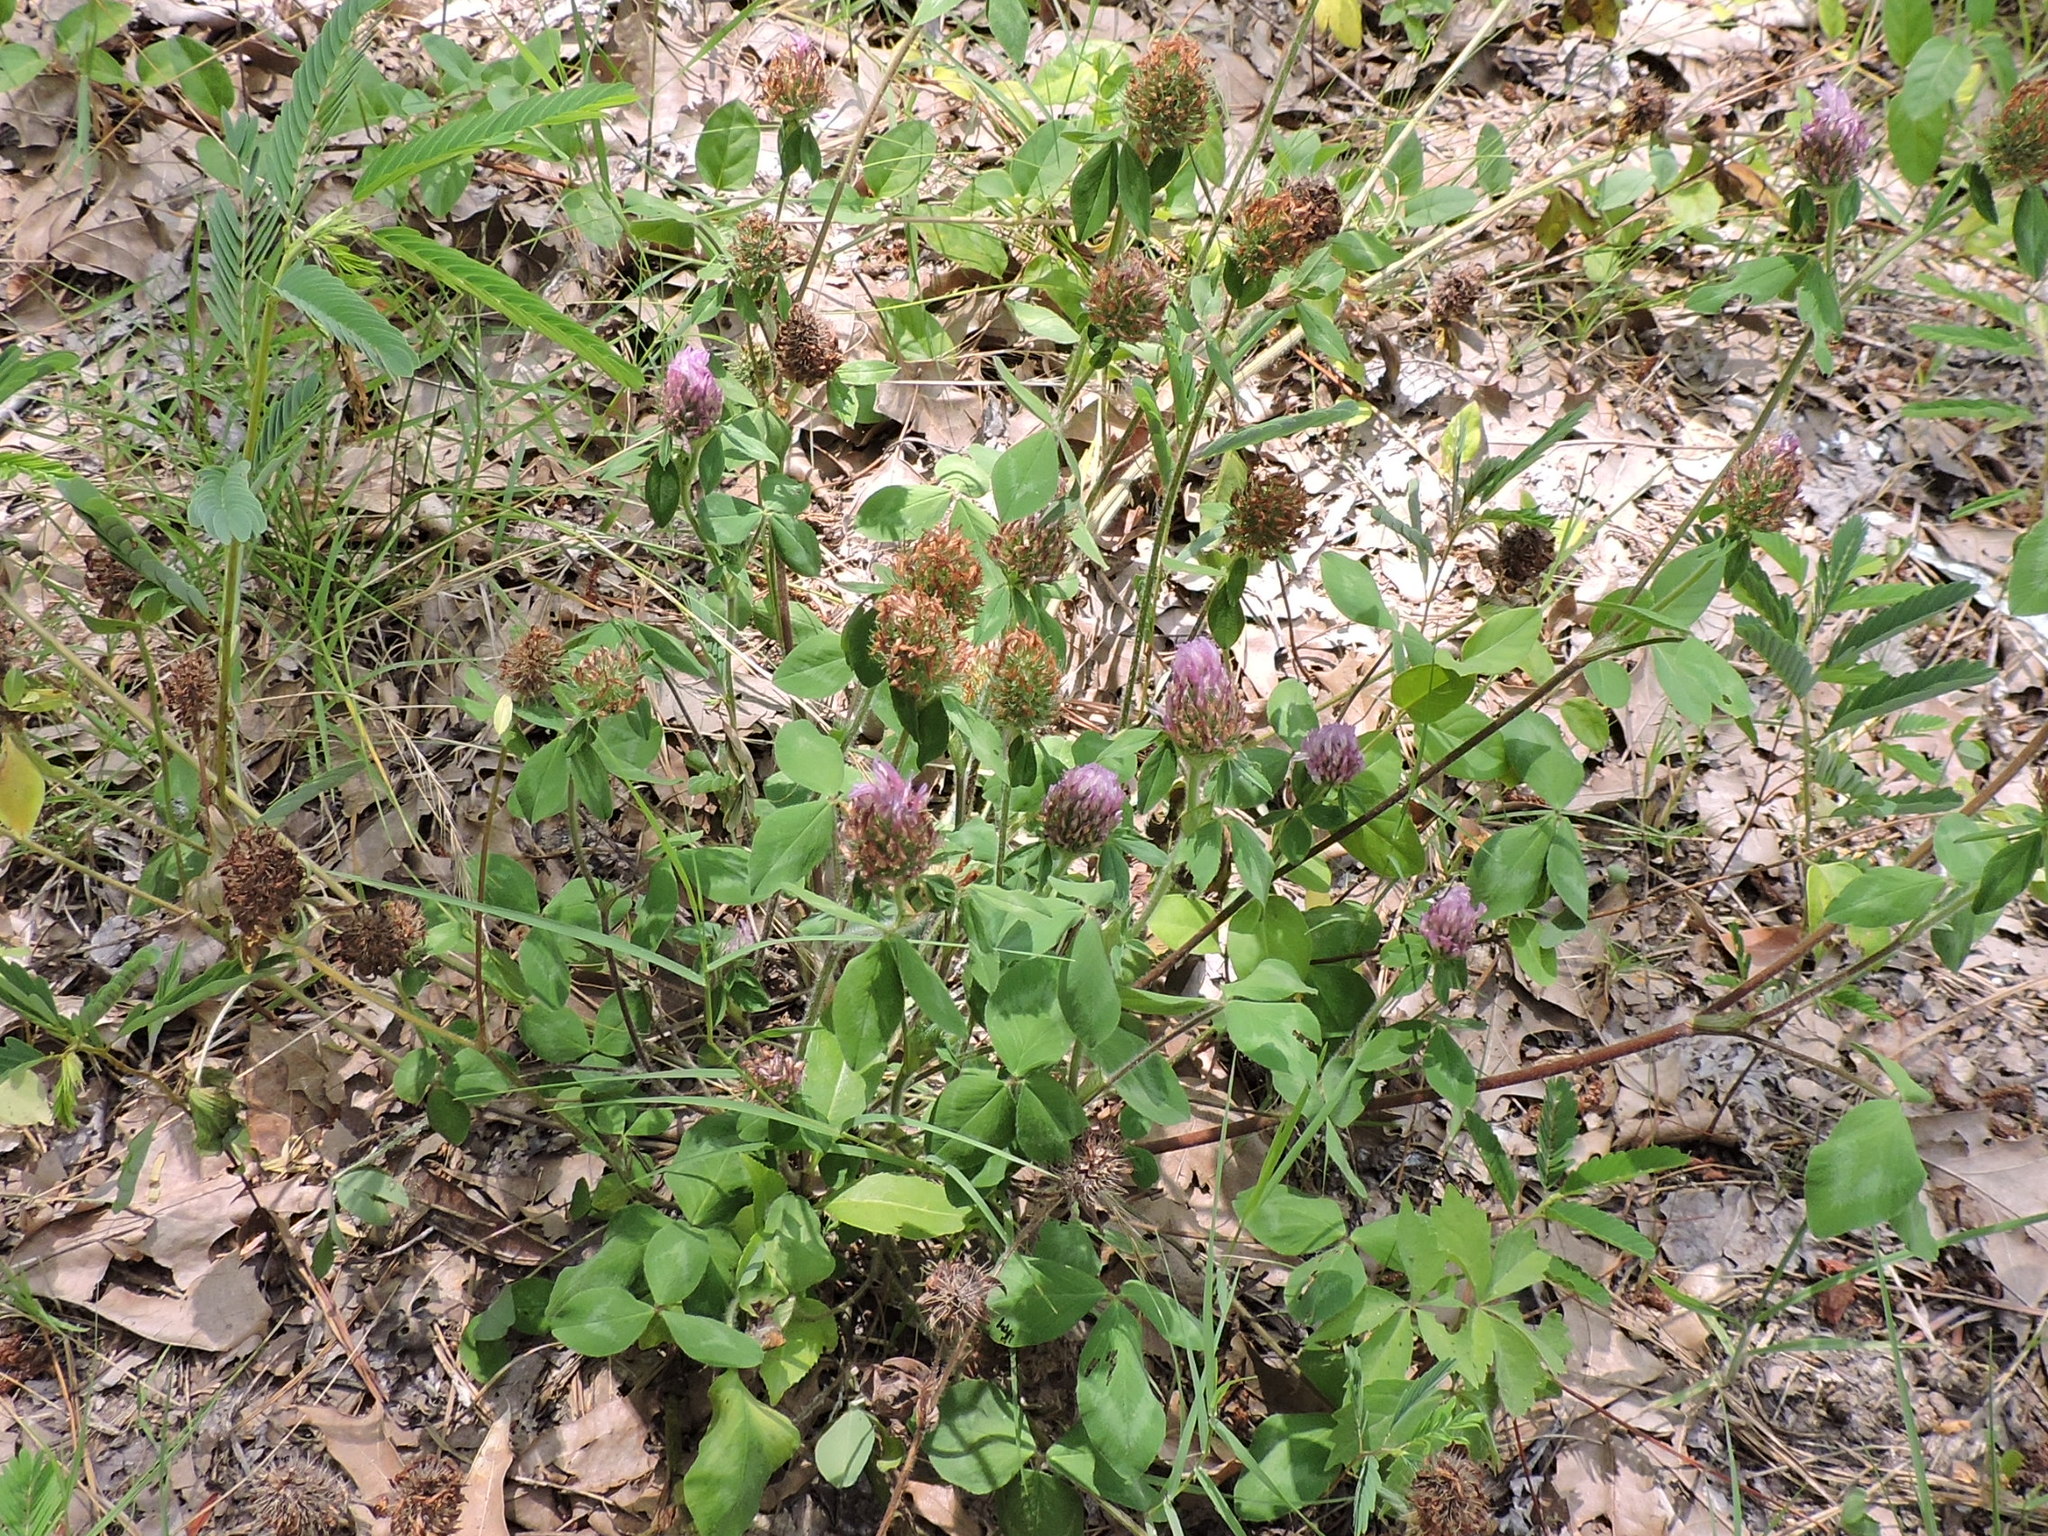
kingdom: Plantae
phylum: Tracheophyta
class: Magnoliopsida
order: Fabales
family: Fabaceae
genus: Trifolium
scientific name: Trifolium pratense
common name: Red clover
